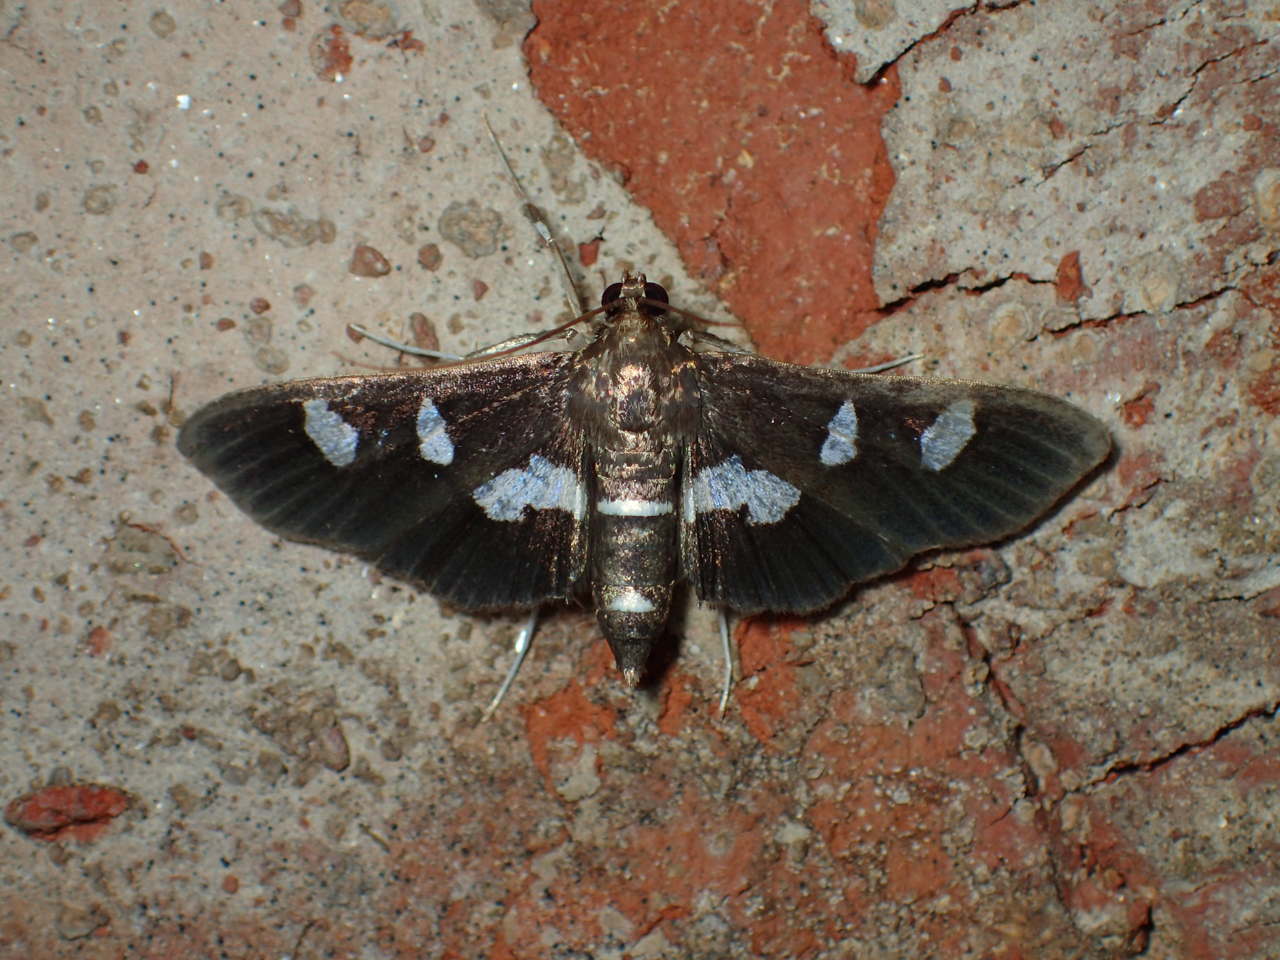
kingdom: Animalia
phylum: Arthropoda
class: Insecta
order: Lepidoptera
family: Crambidae
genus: Desmia
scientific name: Desmia
